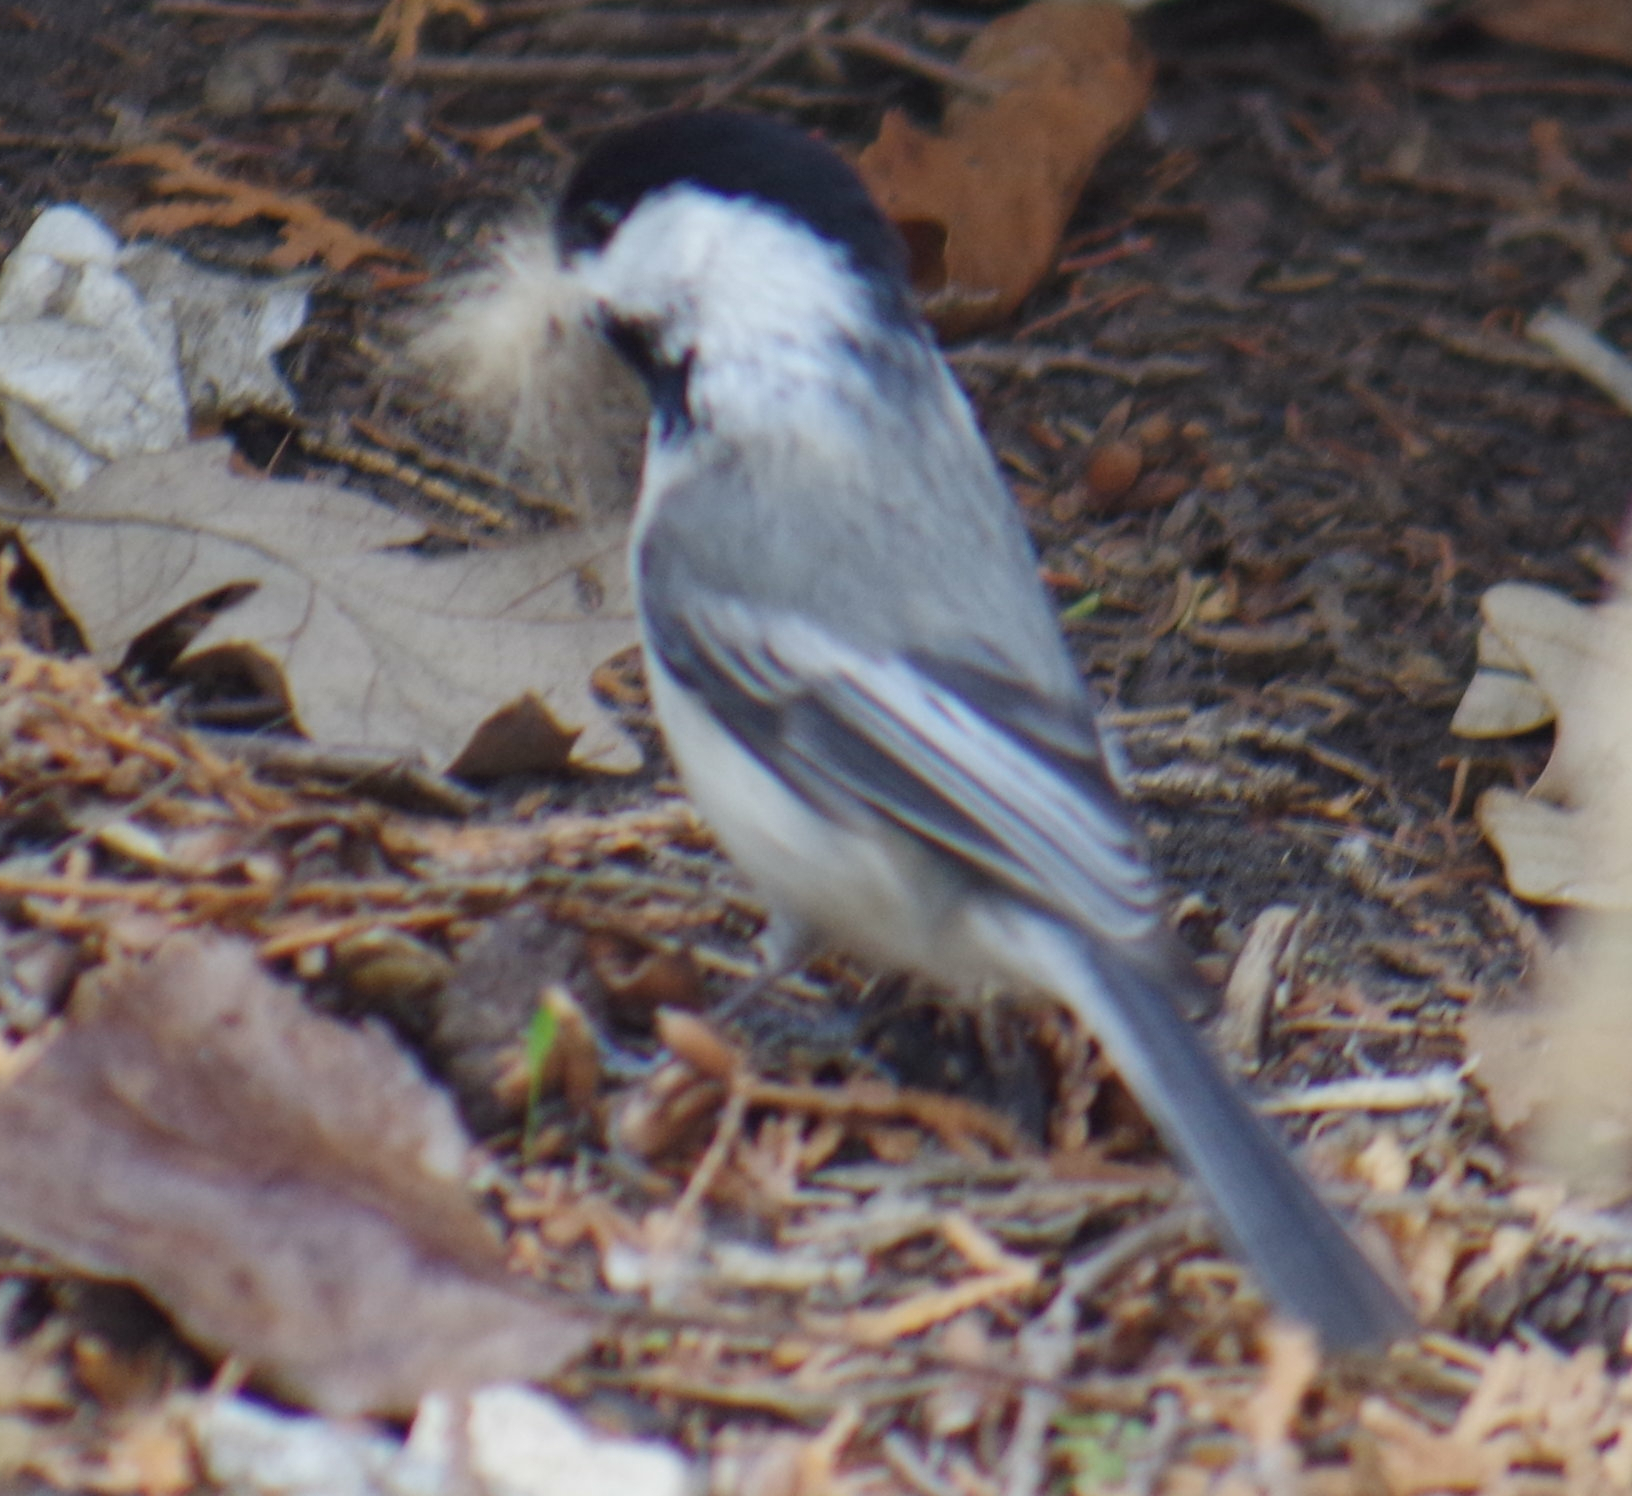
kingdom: Animalia
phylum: Chordata
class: Aves
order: Passeriformes
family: Paridae
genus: Poecile
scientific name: Poecile atricapillus
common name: Black-capped chickadee
